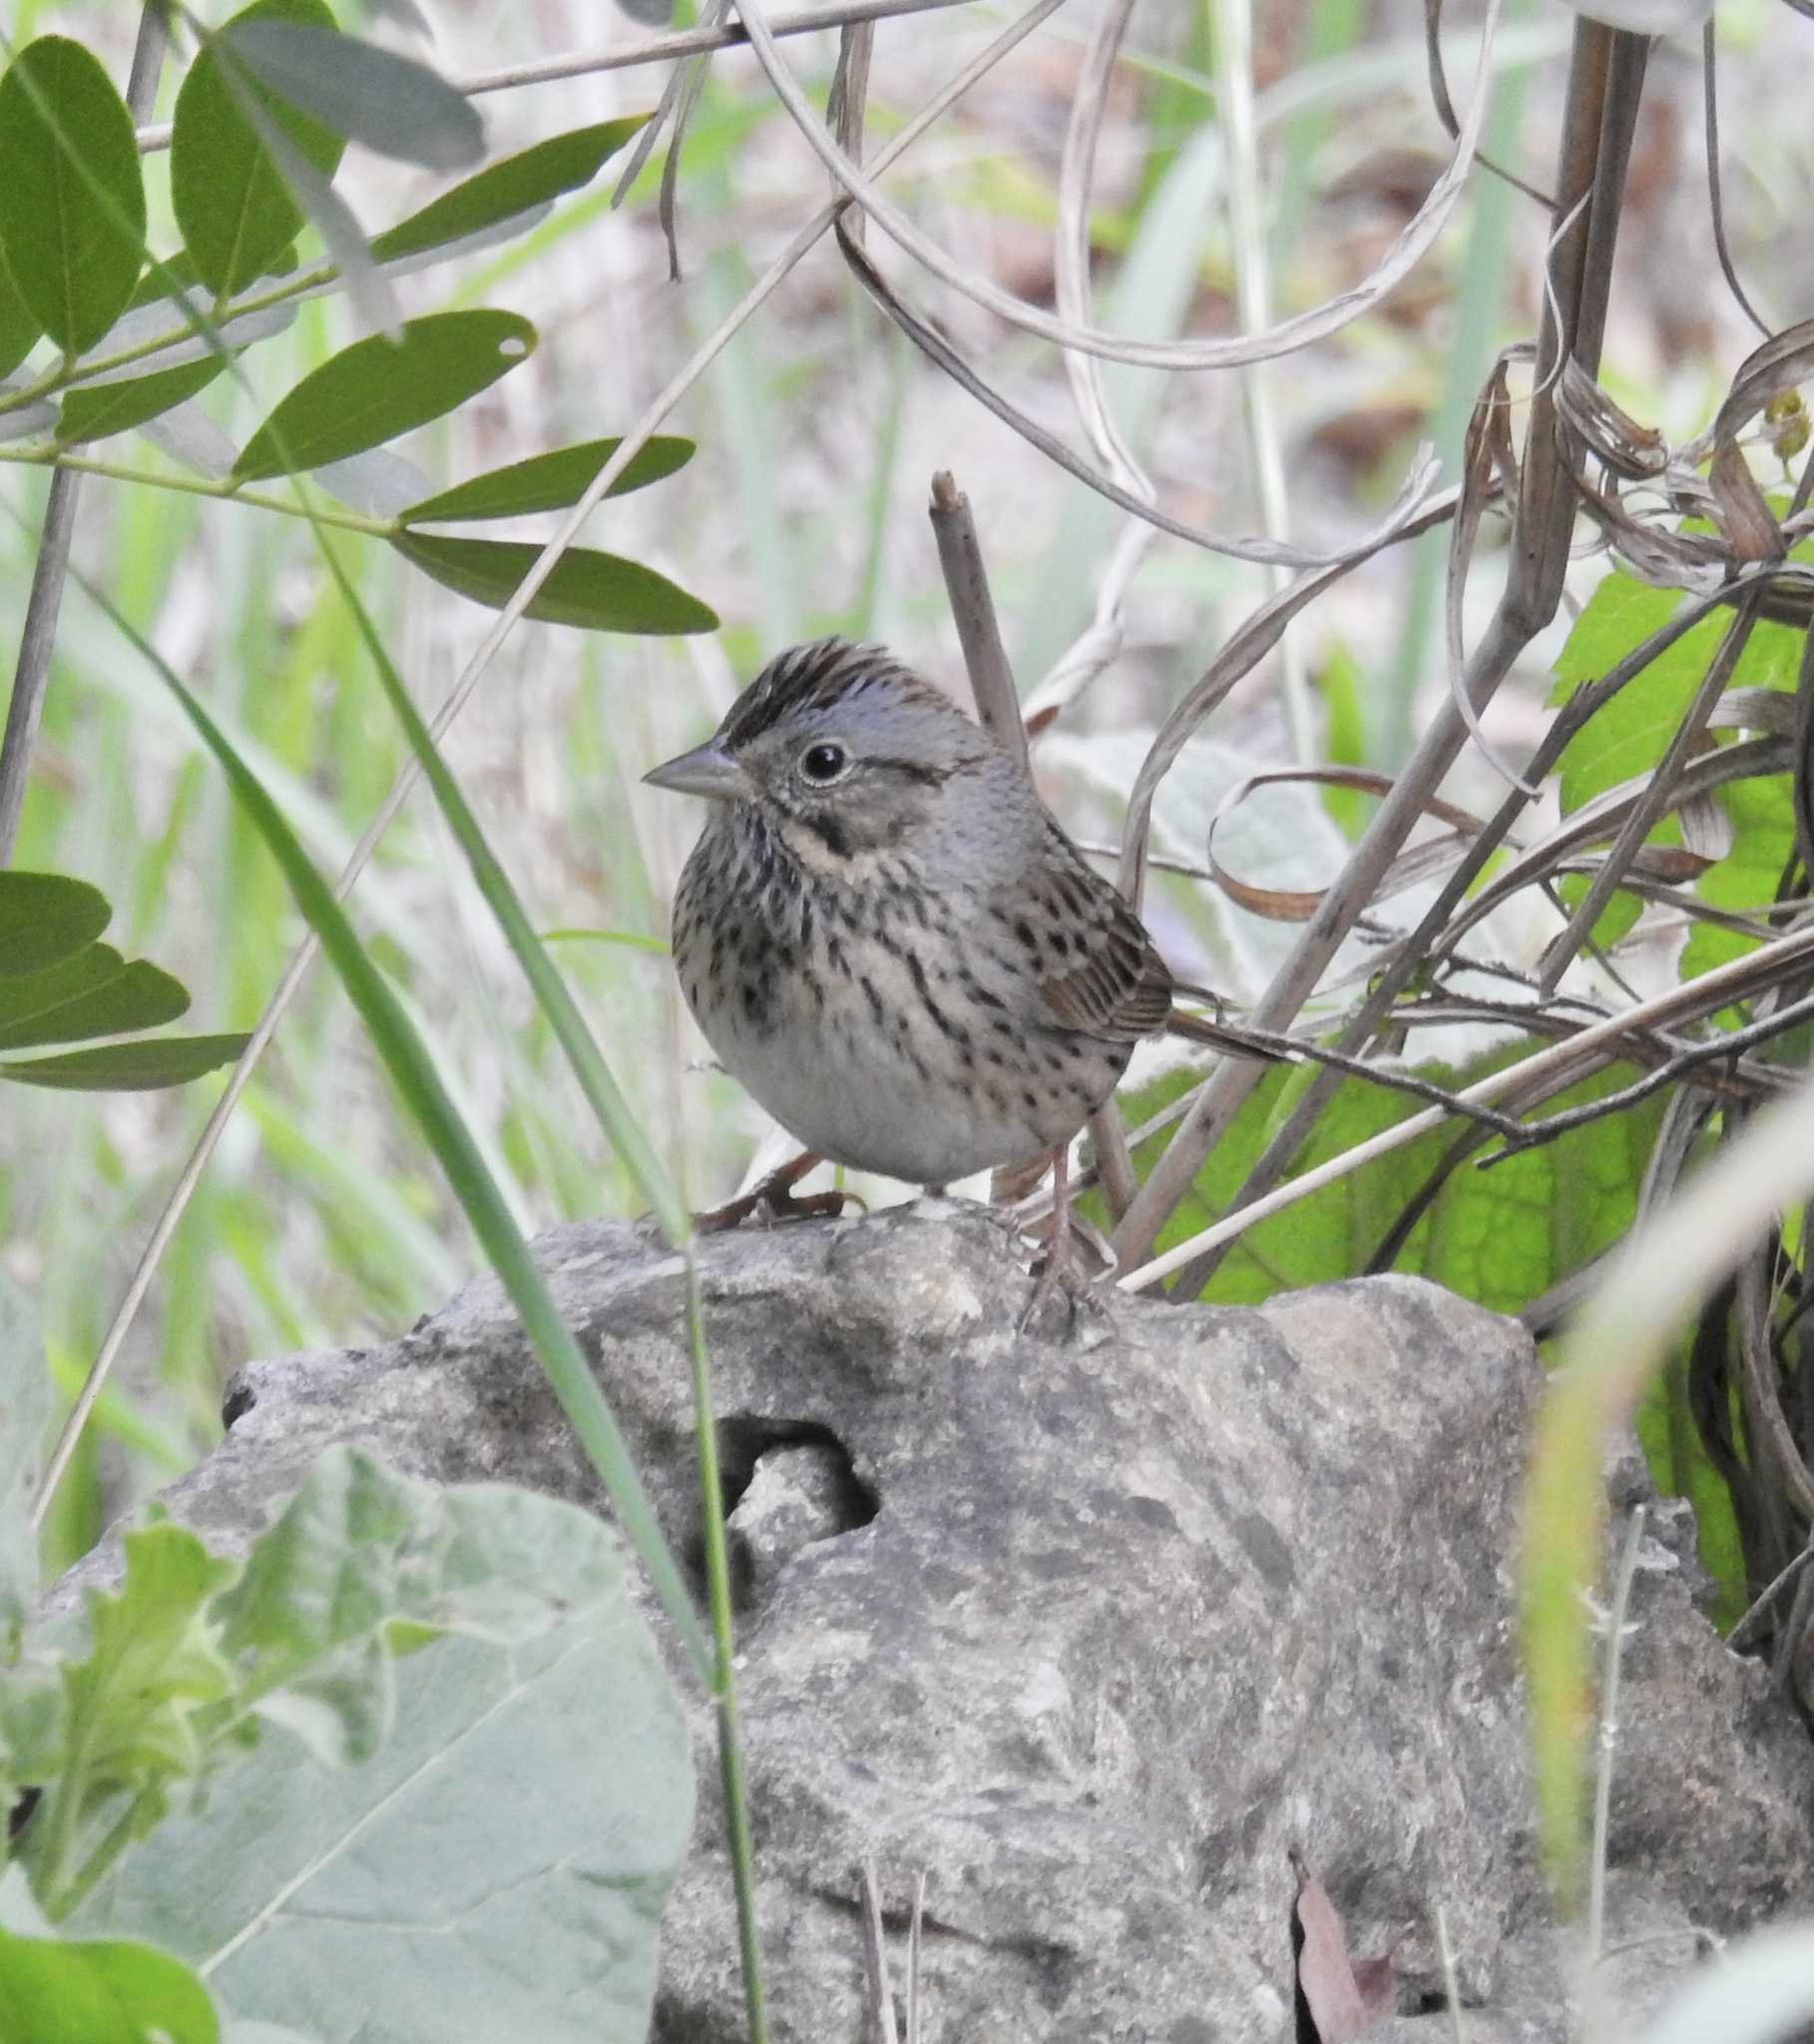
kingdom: Animalia
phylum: Chordata
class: Aves
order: Passeriformes
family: Passerellidae
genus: Melospiza
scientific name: Melospiza lincolnii
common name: Lincoln's sparrow
